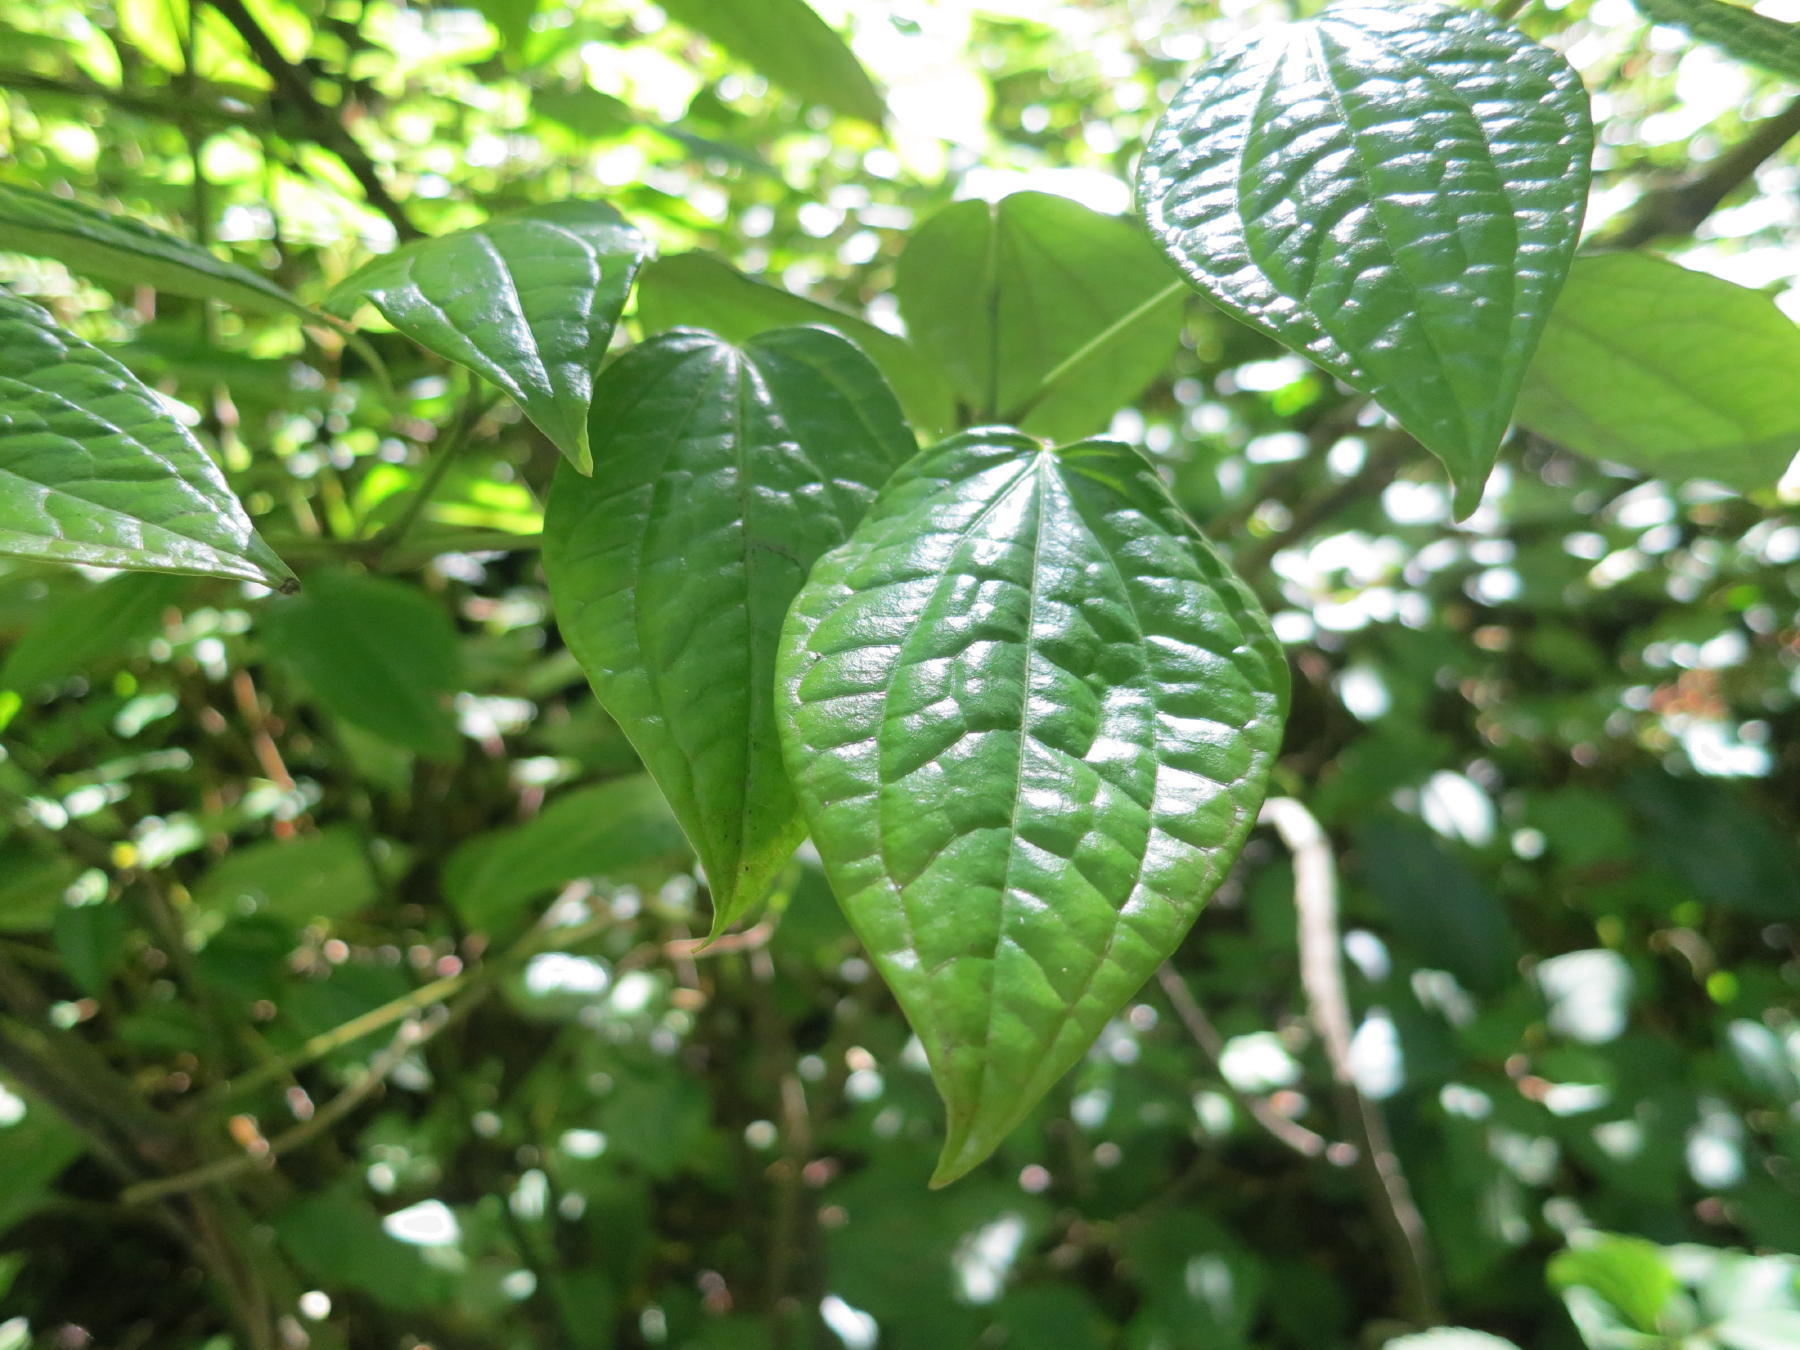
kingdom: Plantae
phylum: Tracheophyta
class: Magnoliopsida
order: Piperales
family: Piperaceae
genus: Piper
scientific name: Piper capense
